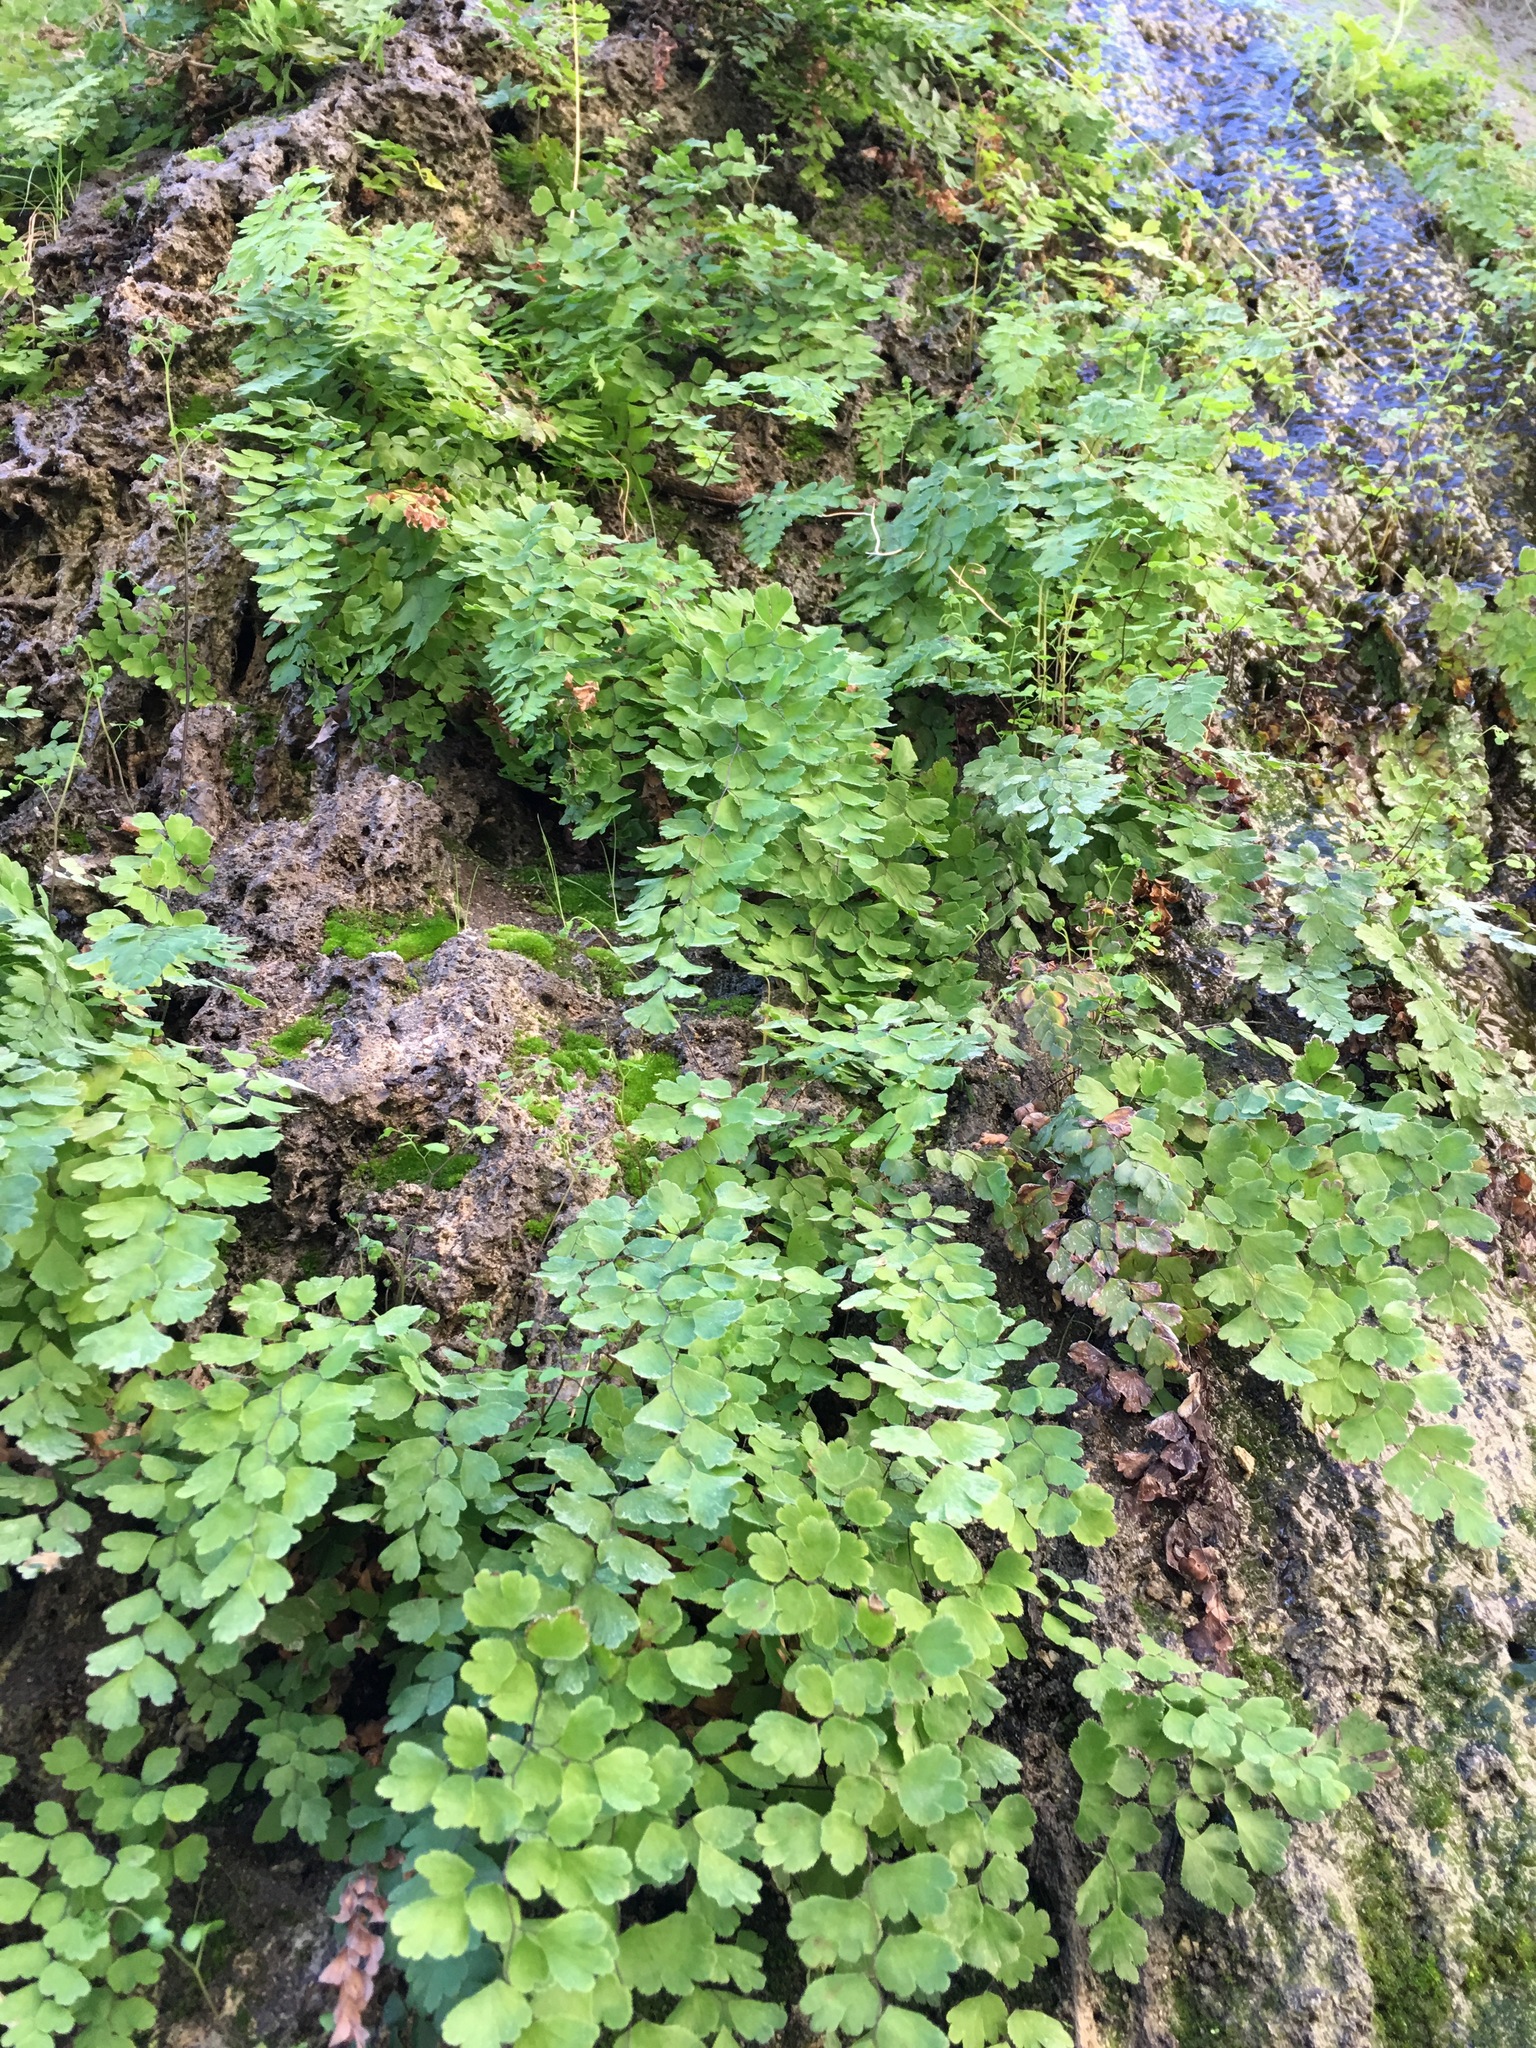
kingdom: Plantae
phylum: Tracheophyta
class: Polypodiopsida
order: Polypodiales
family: Pteridaceae
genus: Adiantum
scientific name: Adiantum capillus-veneris
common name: Maidenhair fern
